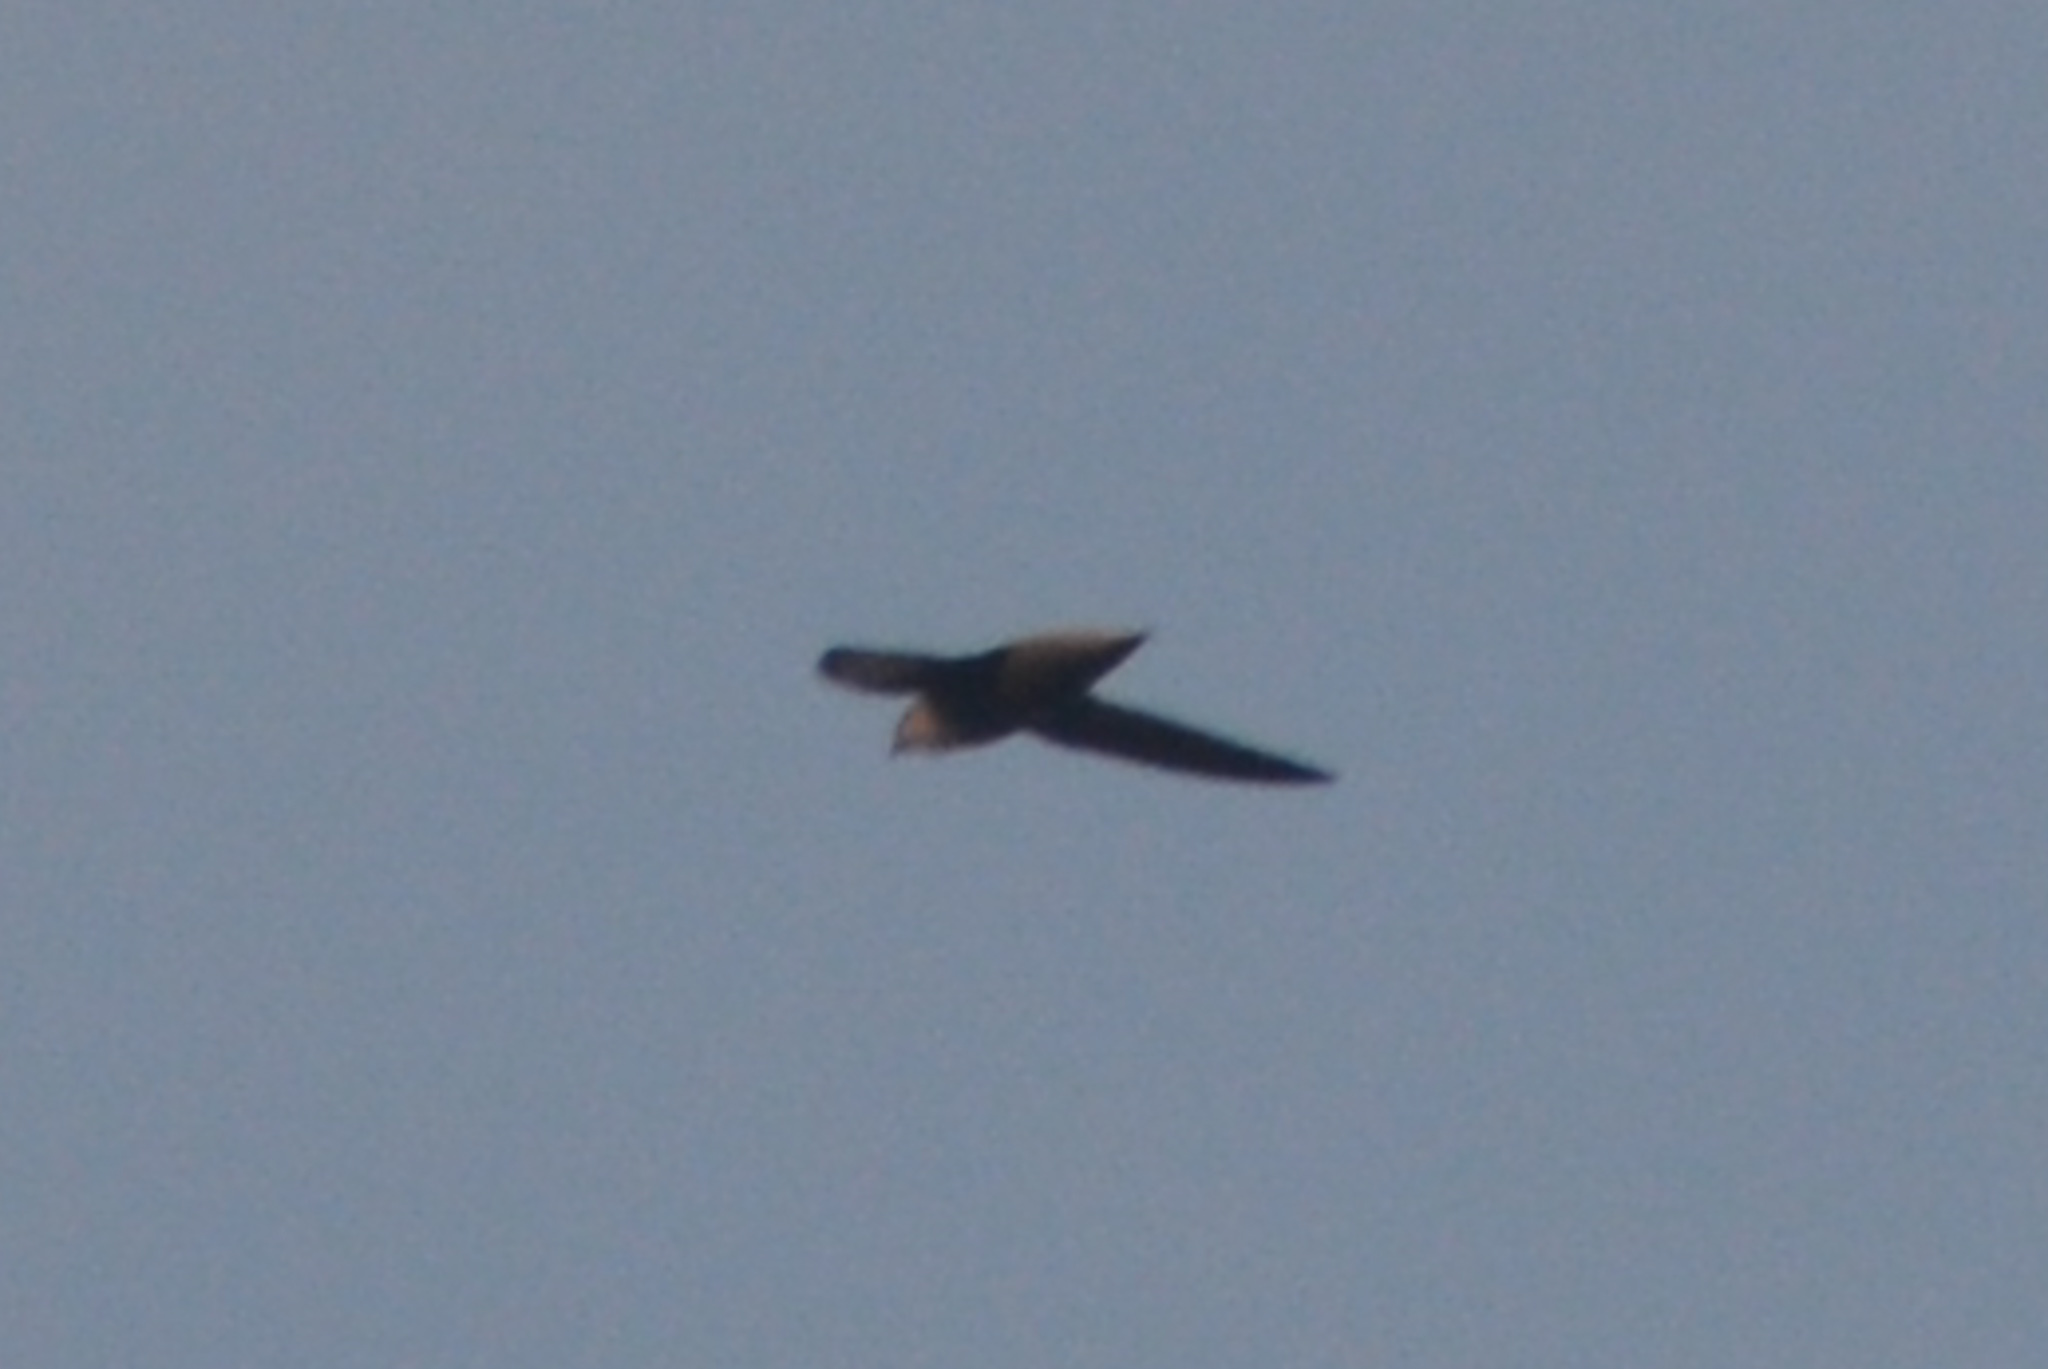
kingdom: Animalia
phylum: Chordata
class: Aves
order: Apodiformes
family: Apodidae
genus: Chaetura
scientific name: Chaetura pelagica
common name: Chimney swift
